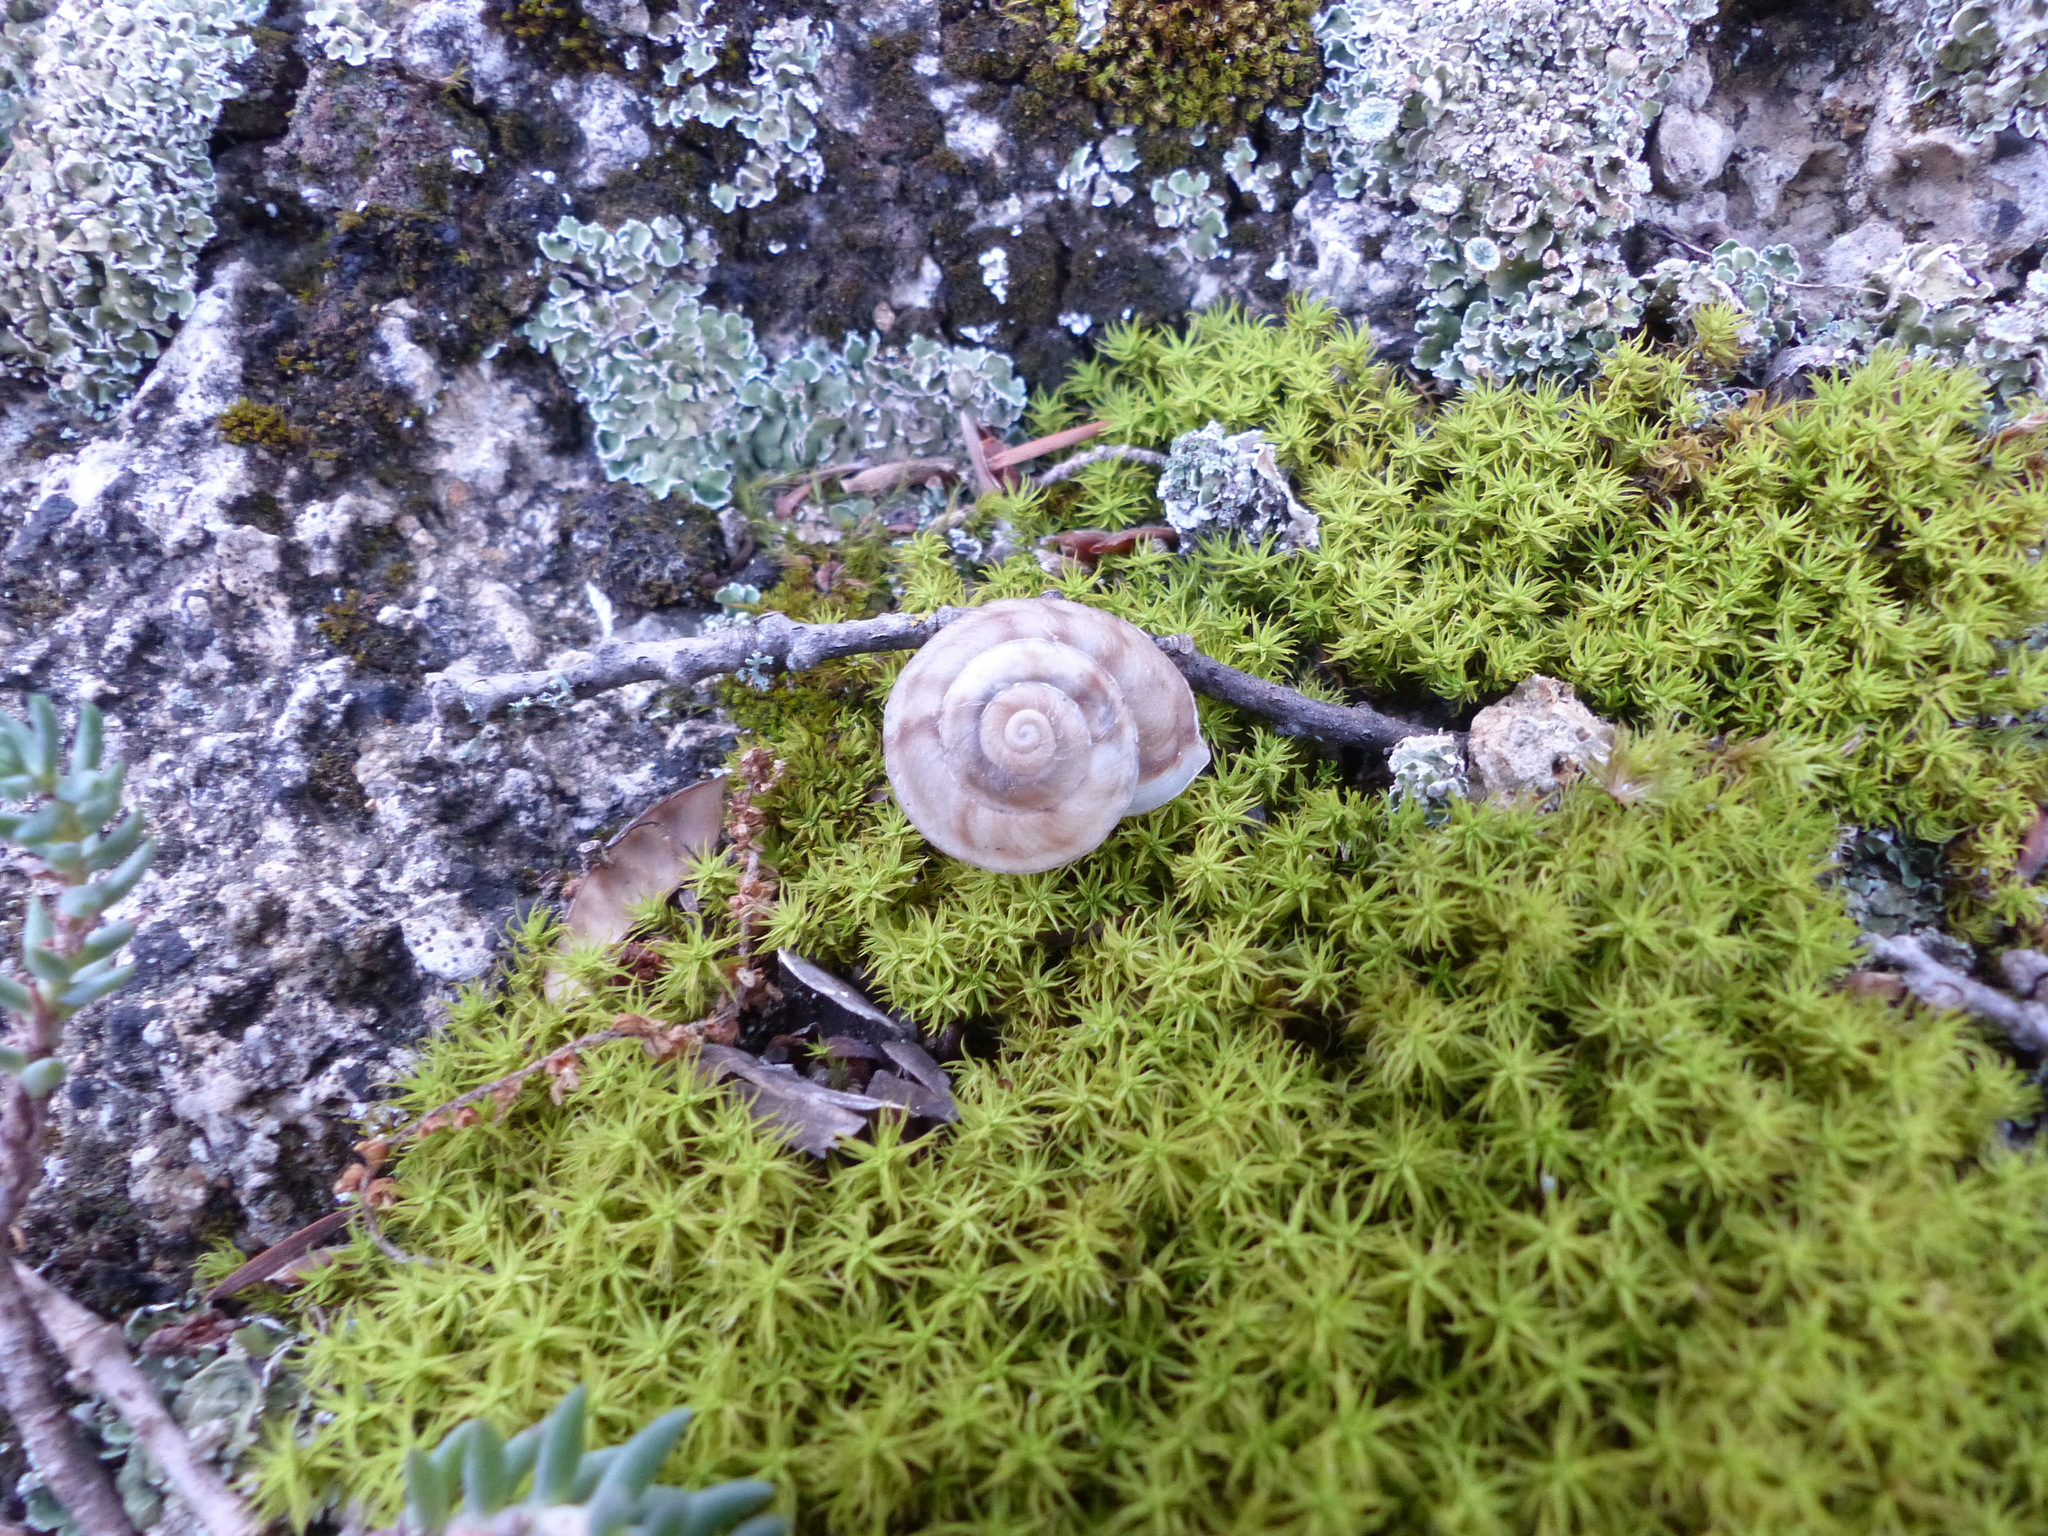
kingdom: Animalia
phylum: Mollusca
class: Gastropoda
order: Stylommatophora
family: Helicidae
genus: Helicigona
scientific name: Helicigona lapicida
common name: Lapidary snail
